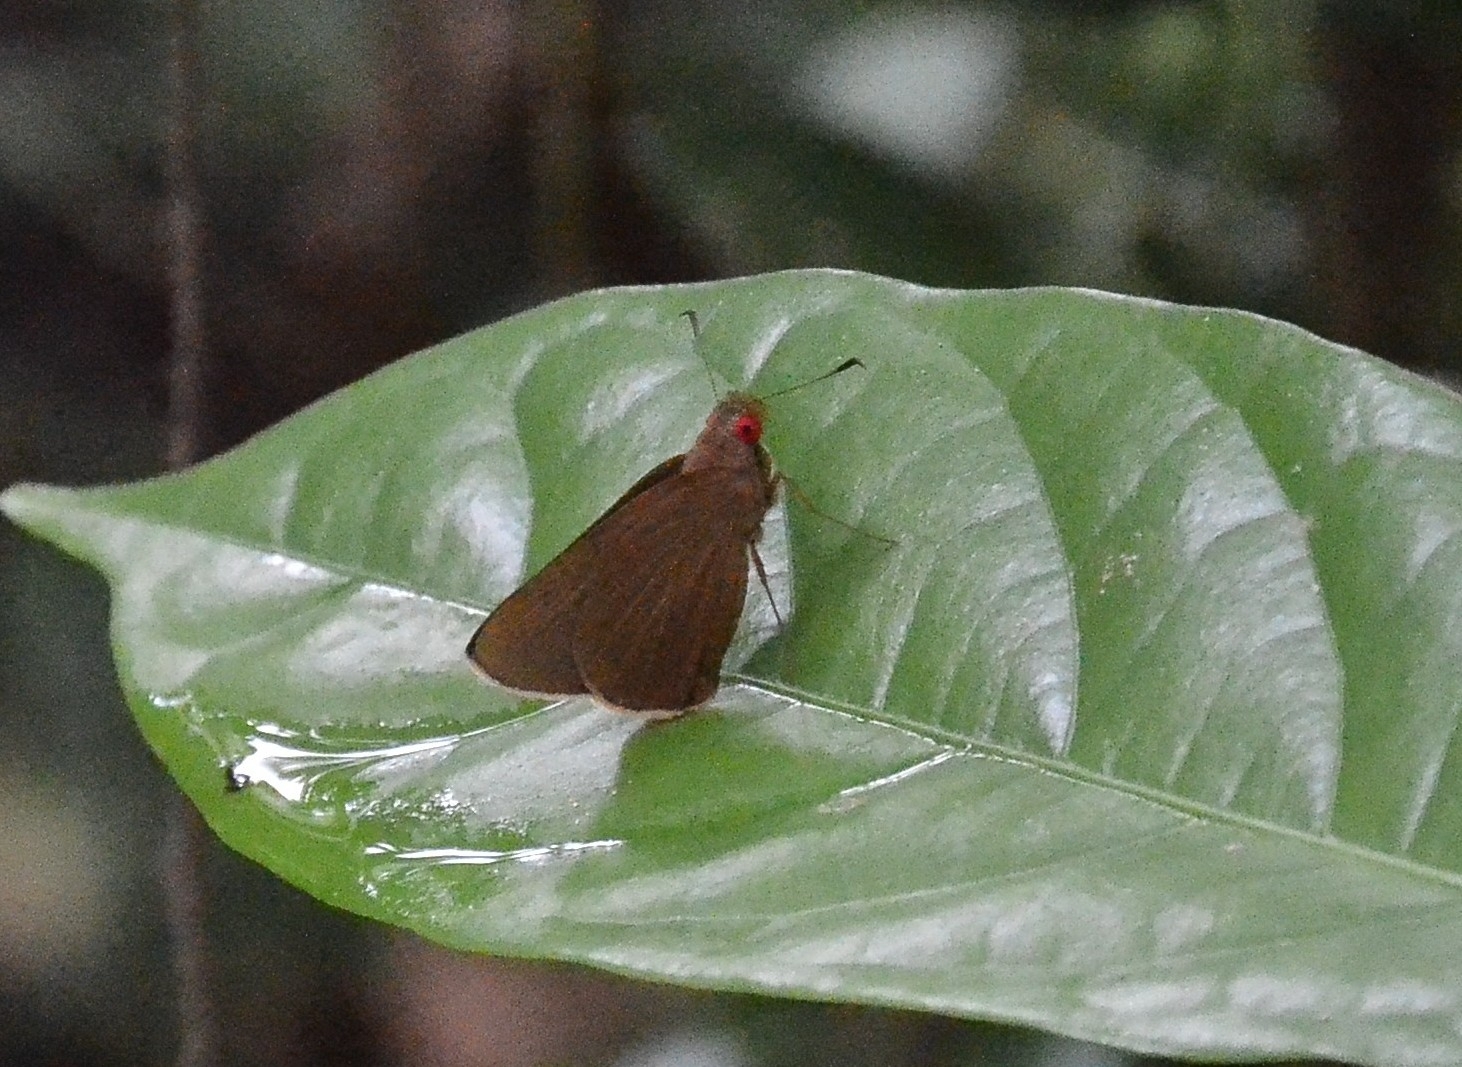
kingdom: Animalia
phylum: Arthropoda
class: Insecta
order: Lepidoptera
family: Hesperiidae
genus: Matapa
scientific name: Matapa aria
